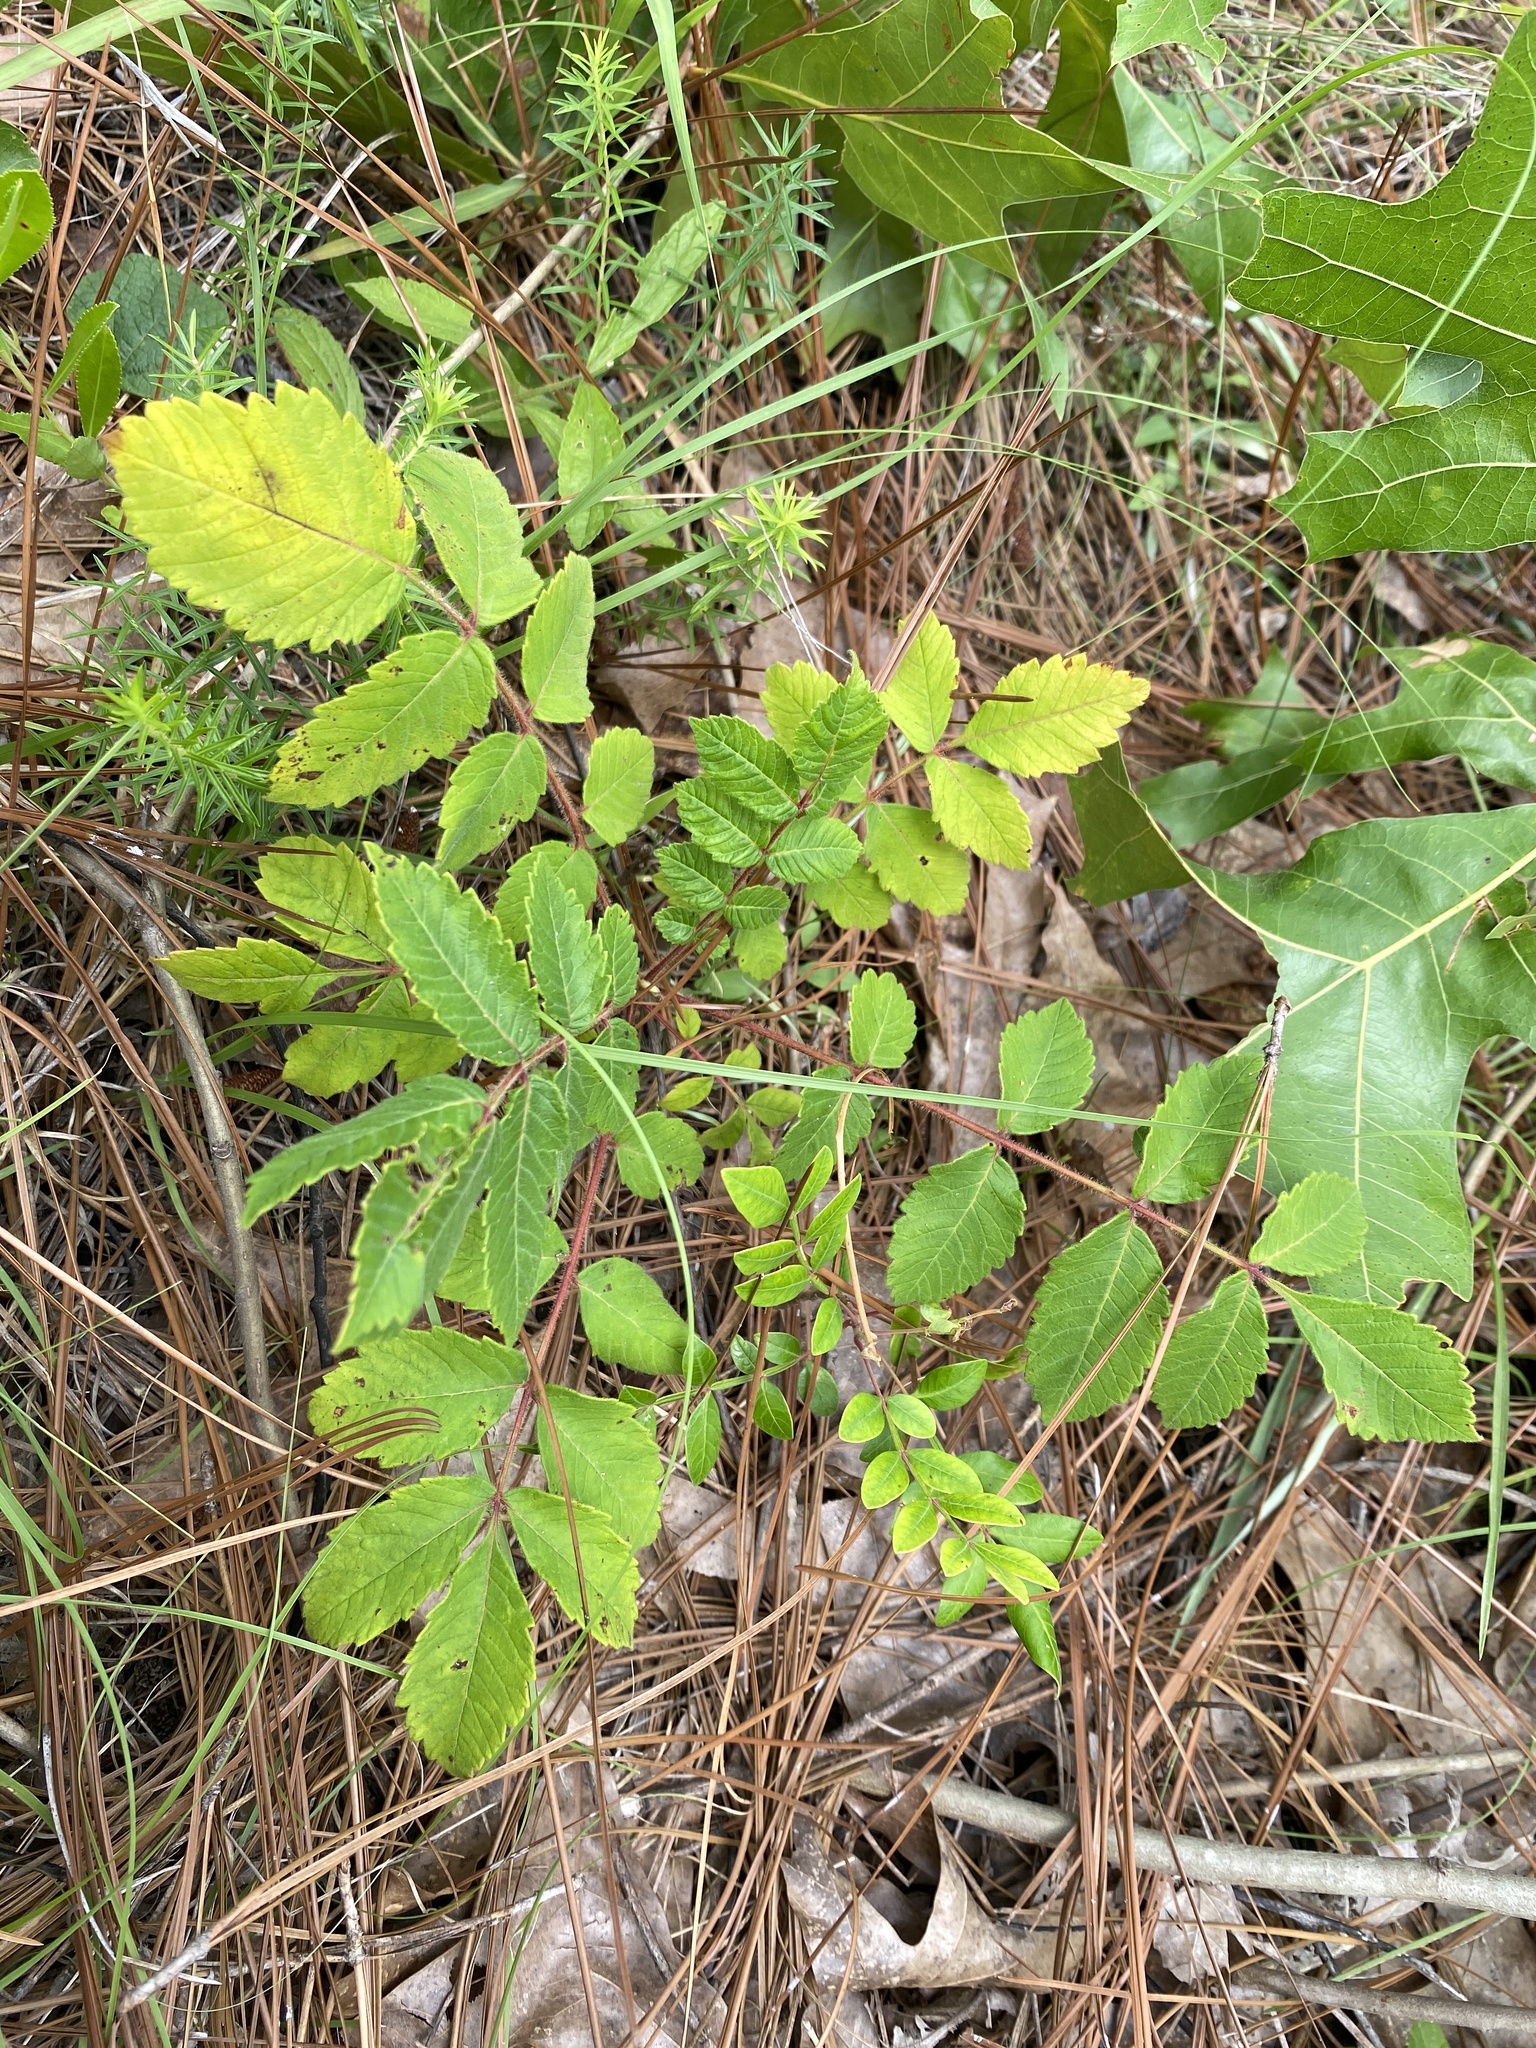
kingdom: Plantae
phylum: Tracheophyta
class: Magnoliopsida
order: Sapindales
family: Anacardiaceae
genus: Rhus
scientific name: Rhus michauxii
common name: Michaux's sumac
